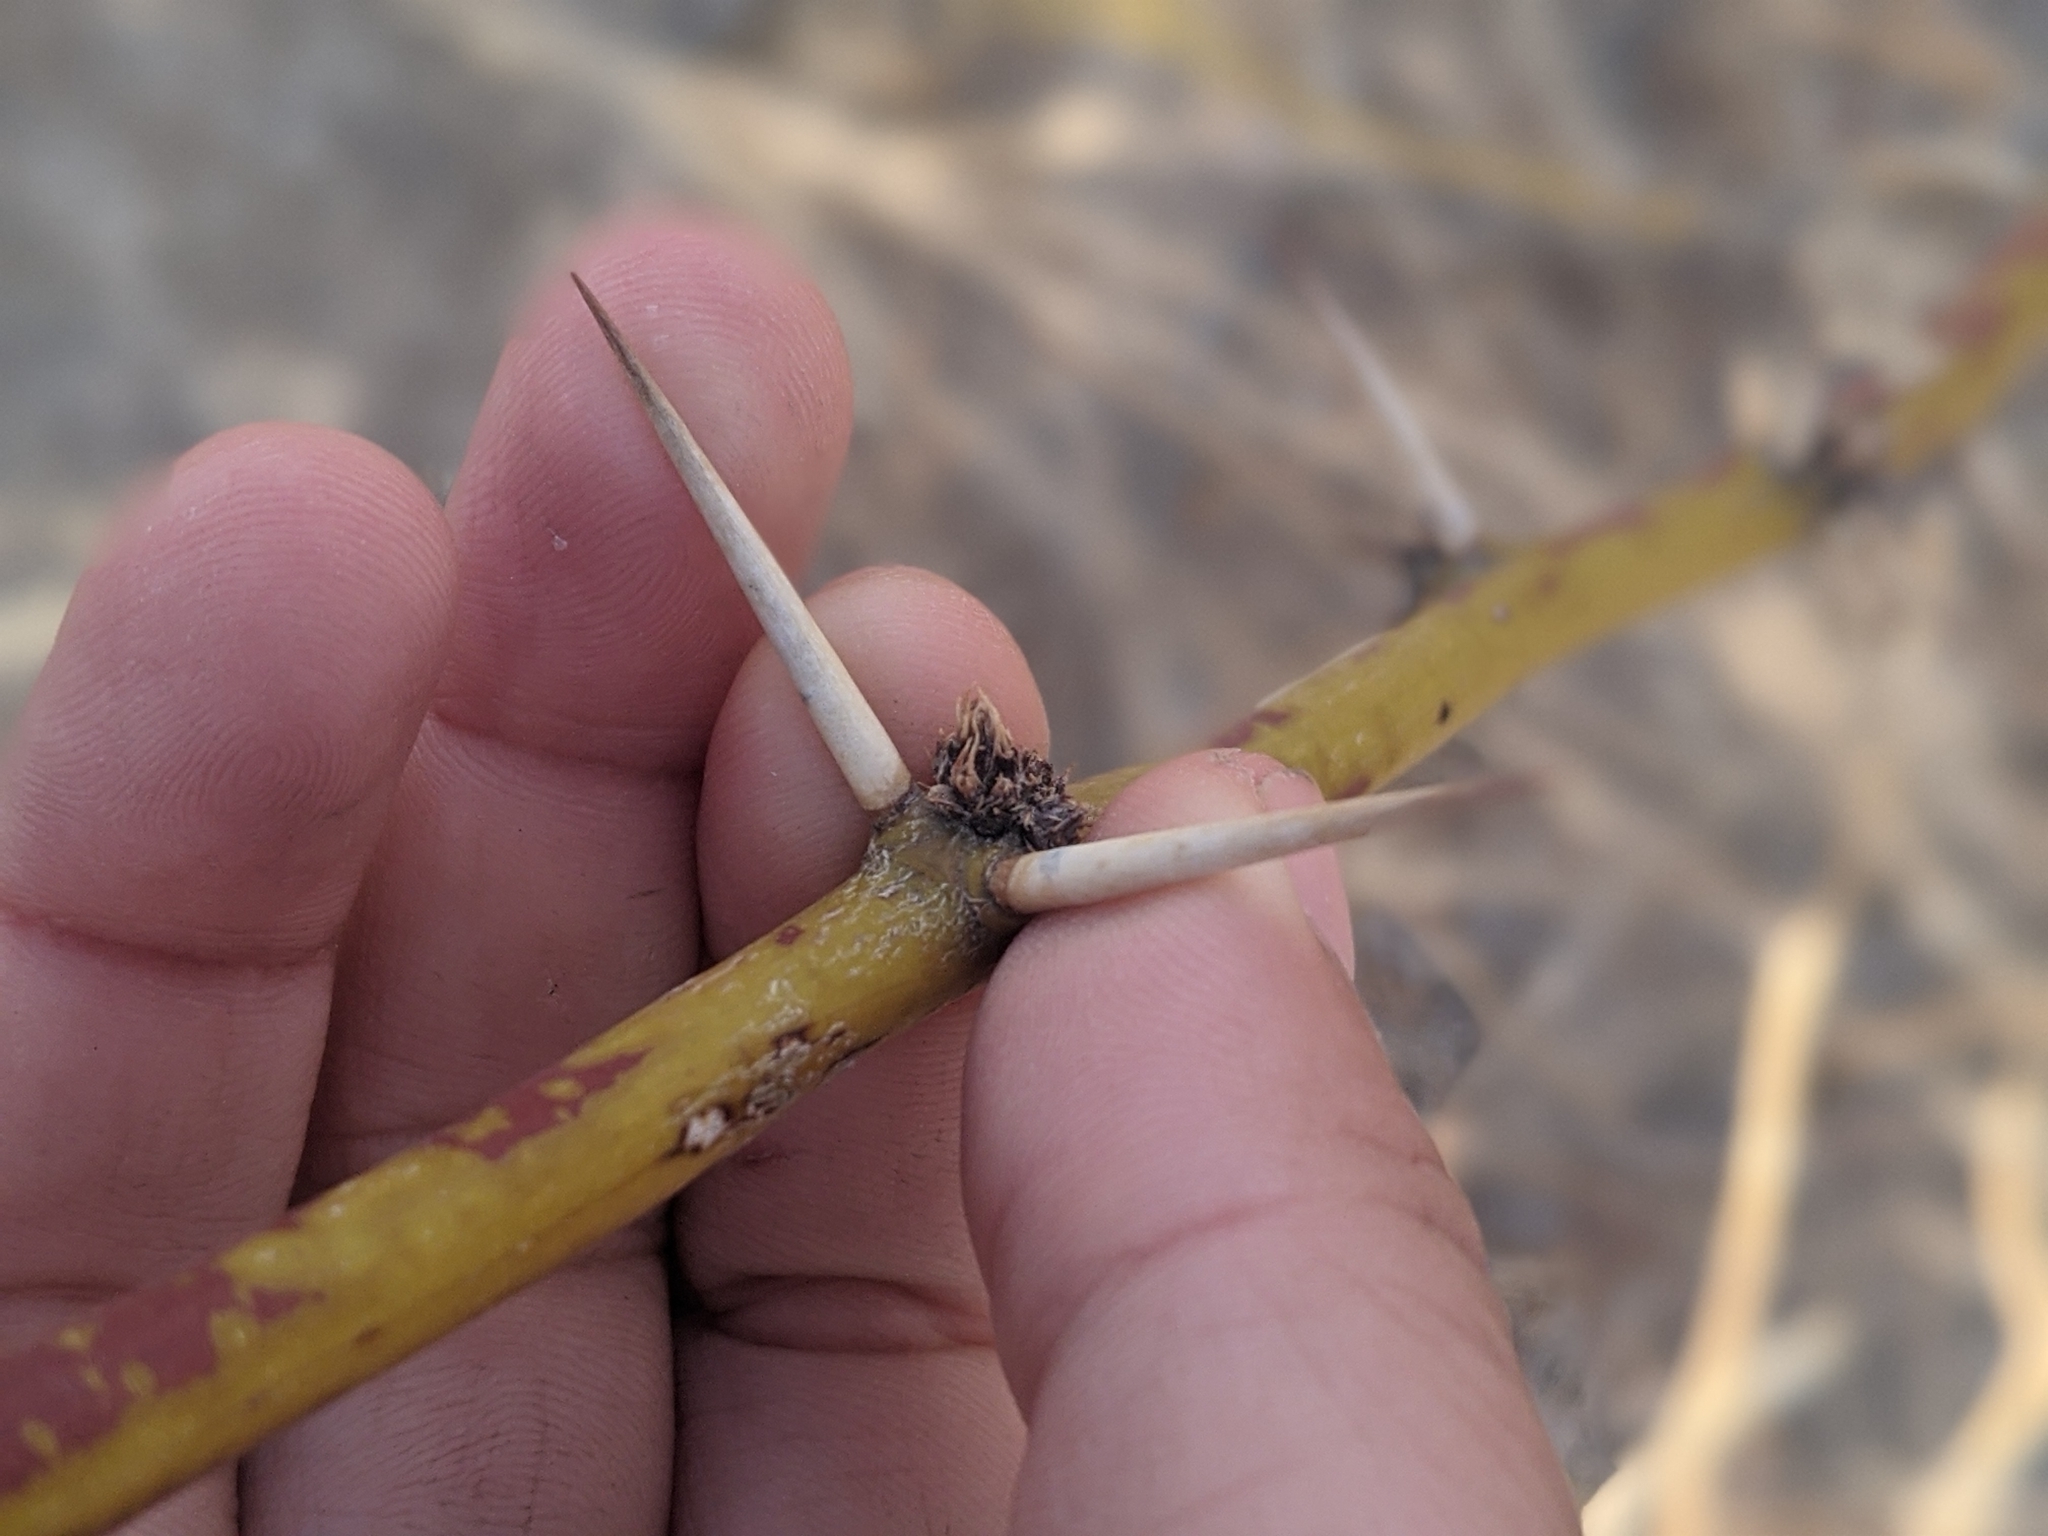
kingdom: Plantae
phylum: Tracheophyta
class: Magnoliopsida
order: Fabales
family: Fabaceae
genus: Prosopis
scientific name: Prosopis glandulosa
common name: Honey mesquite
